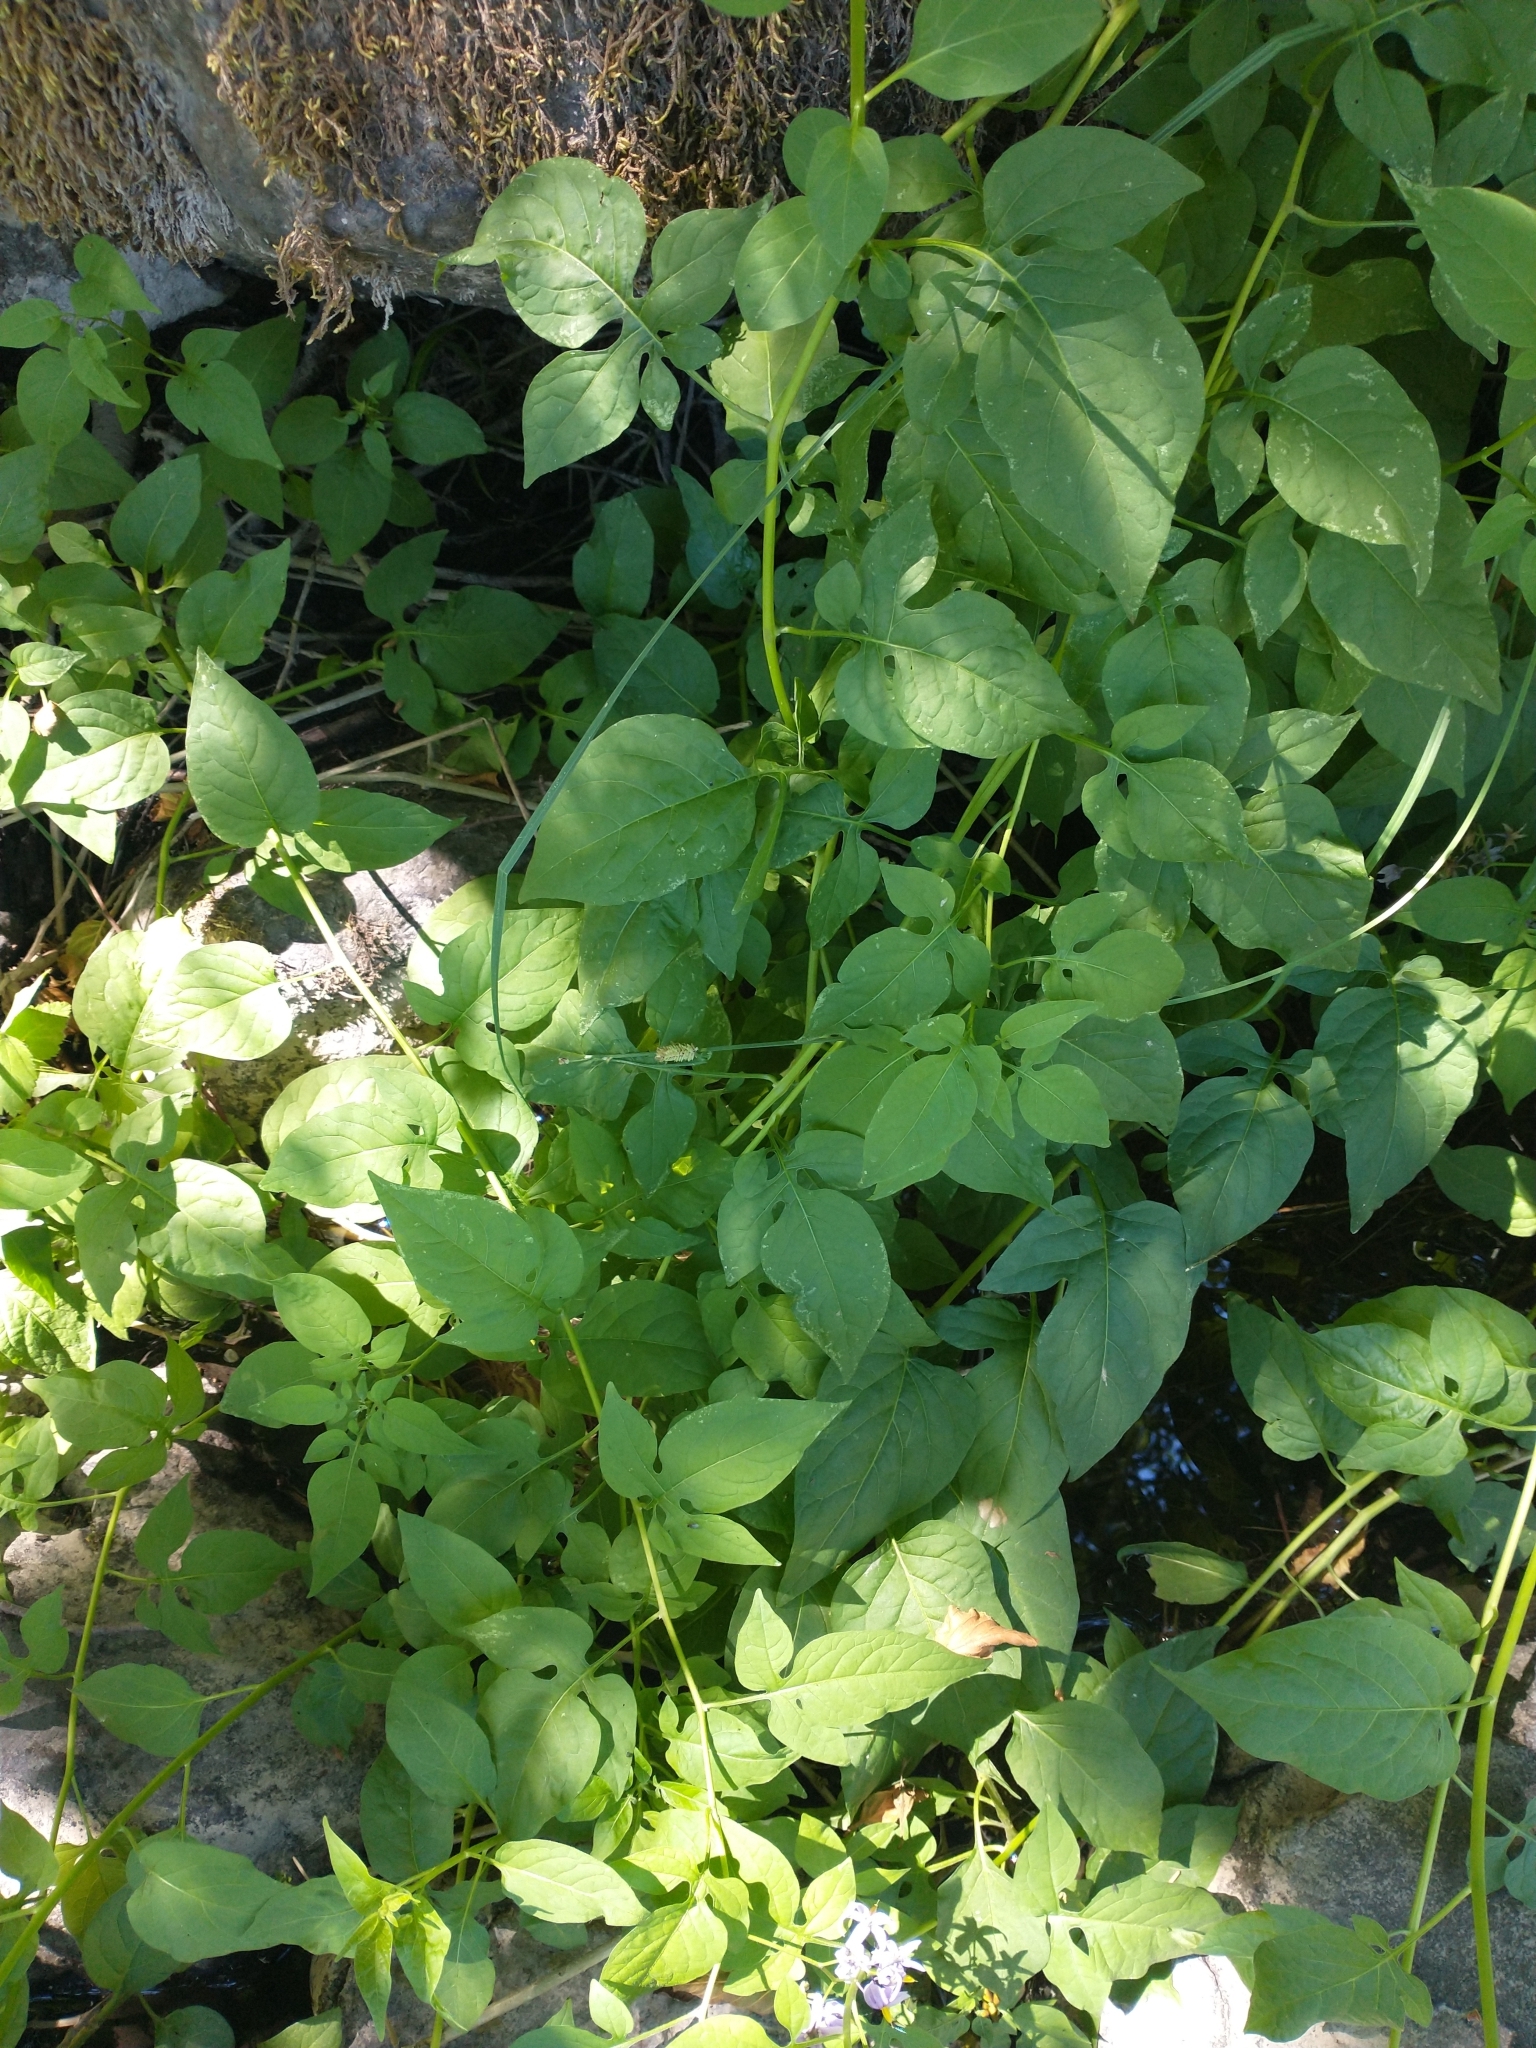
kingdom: Plantae
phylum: Tracheophyta
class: Magnoliopsida
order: Solanales
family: Solanaceae
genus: Solanum
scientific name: Solanum dulcamara
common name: Climbing nightshade
